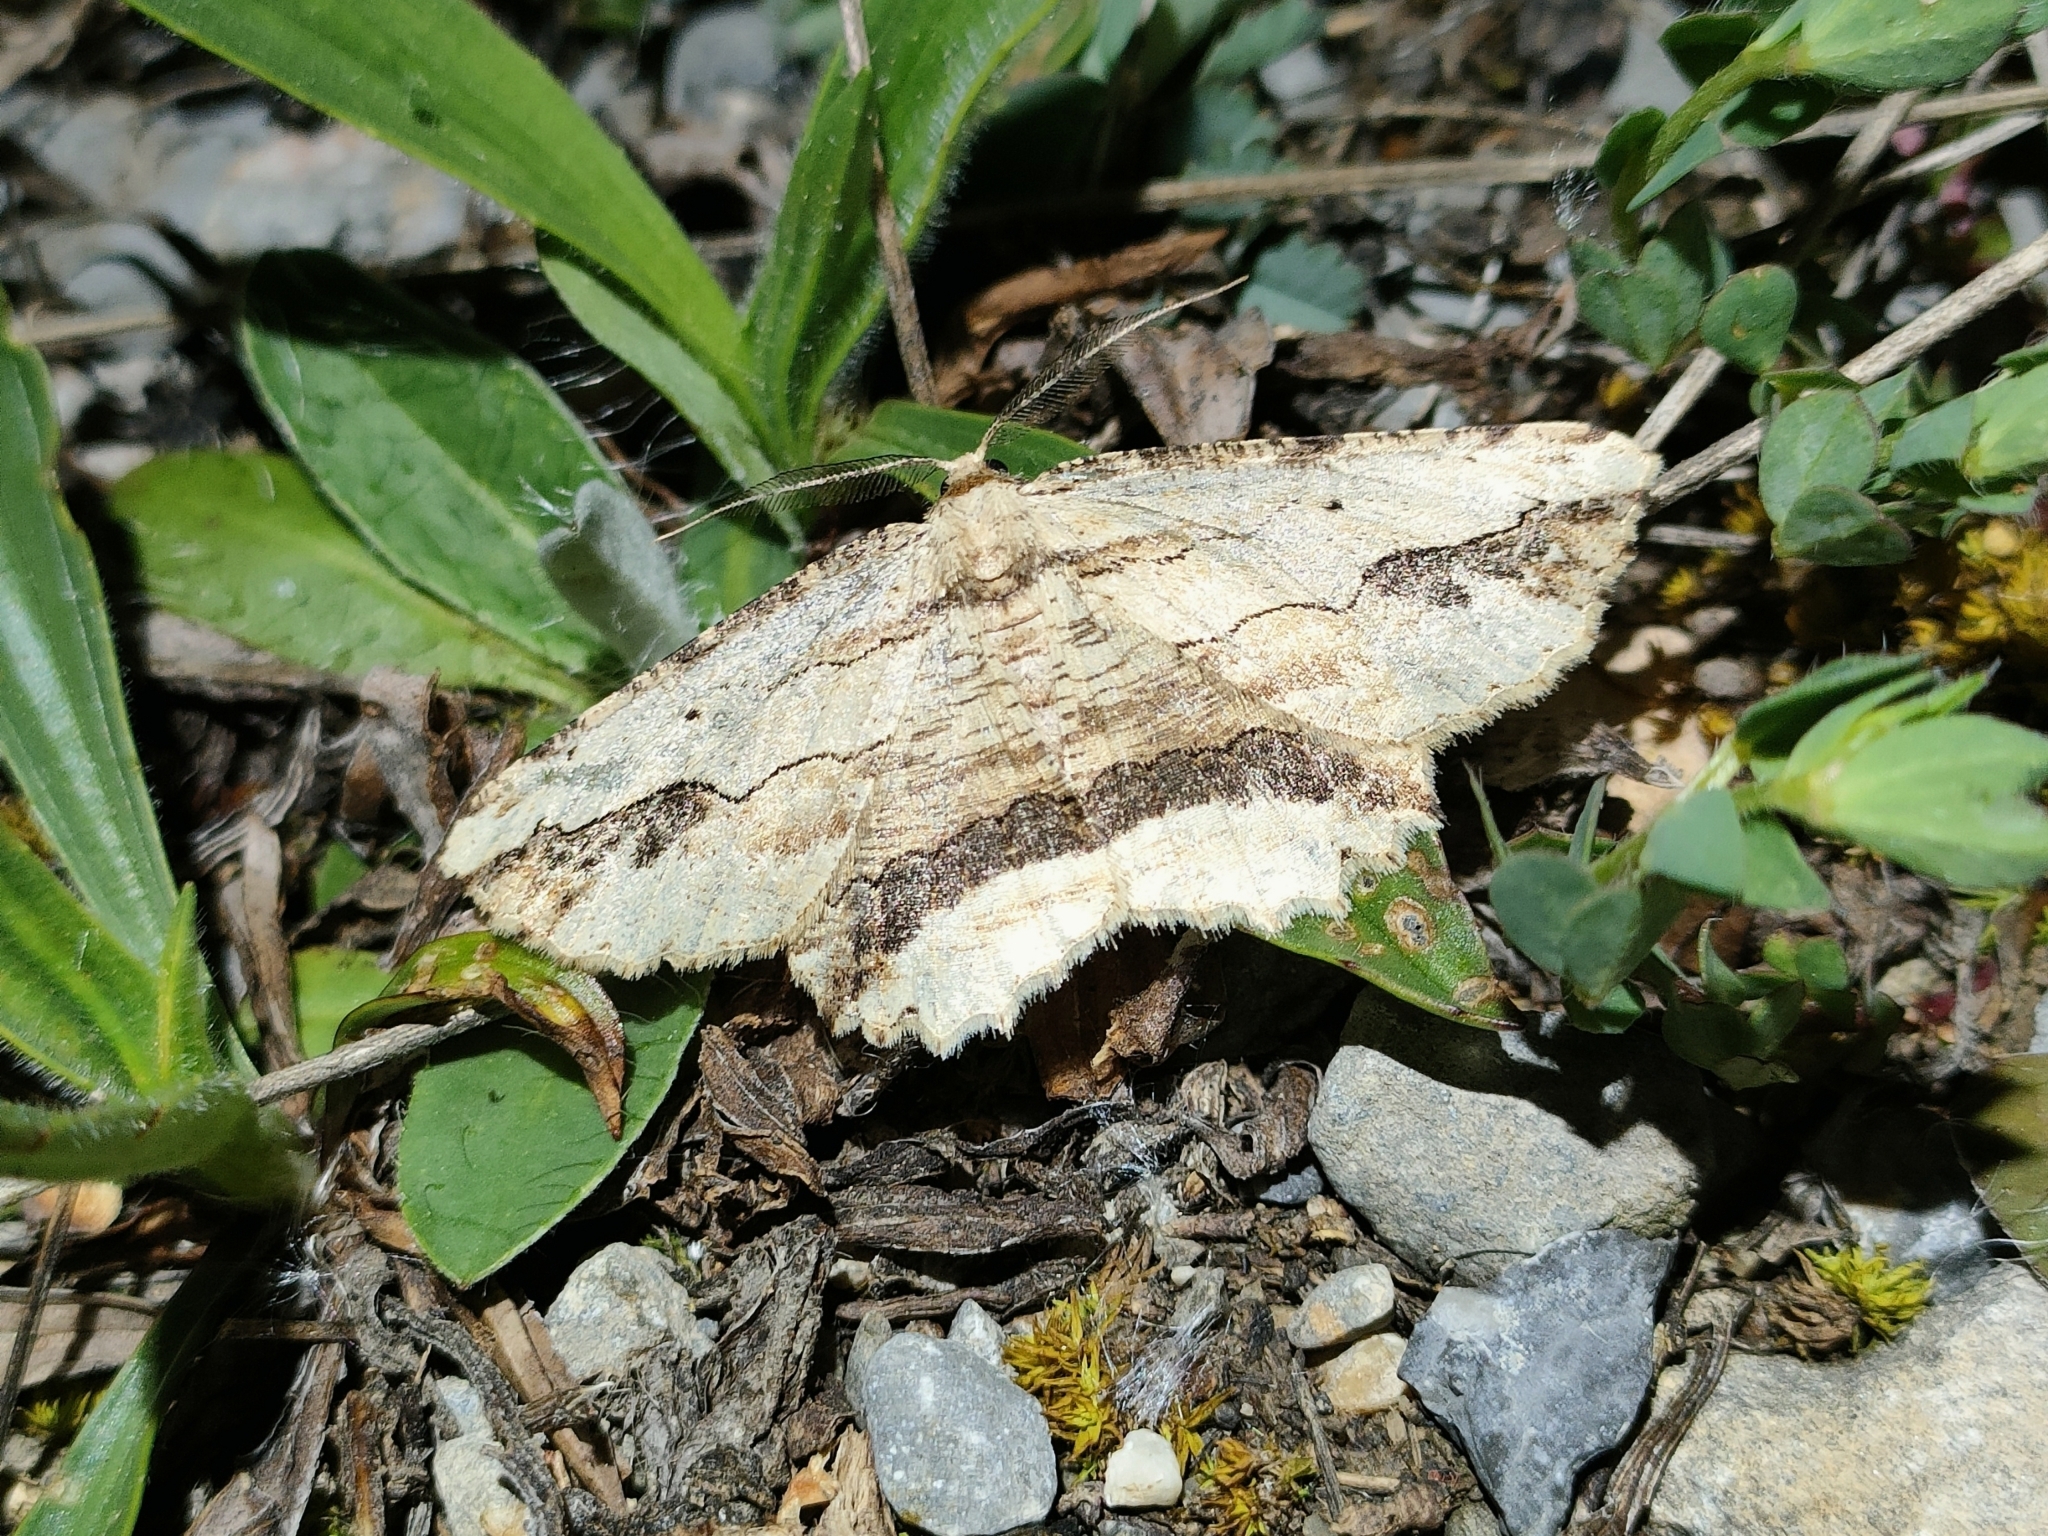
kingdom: Animalia
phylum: Arthropoda
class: Insecta
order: Lepidoptera
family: Geometridae
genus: Menophra
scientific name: Menophra abruptaria
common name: Waved umber
